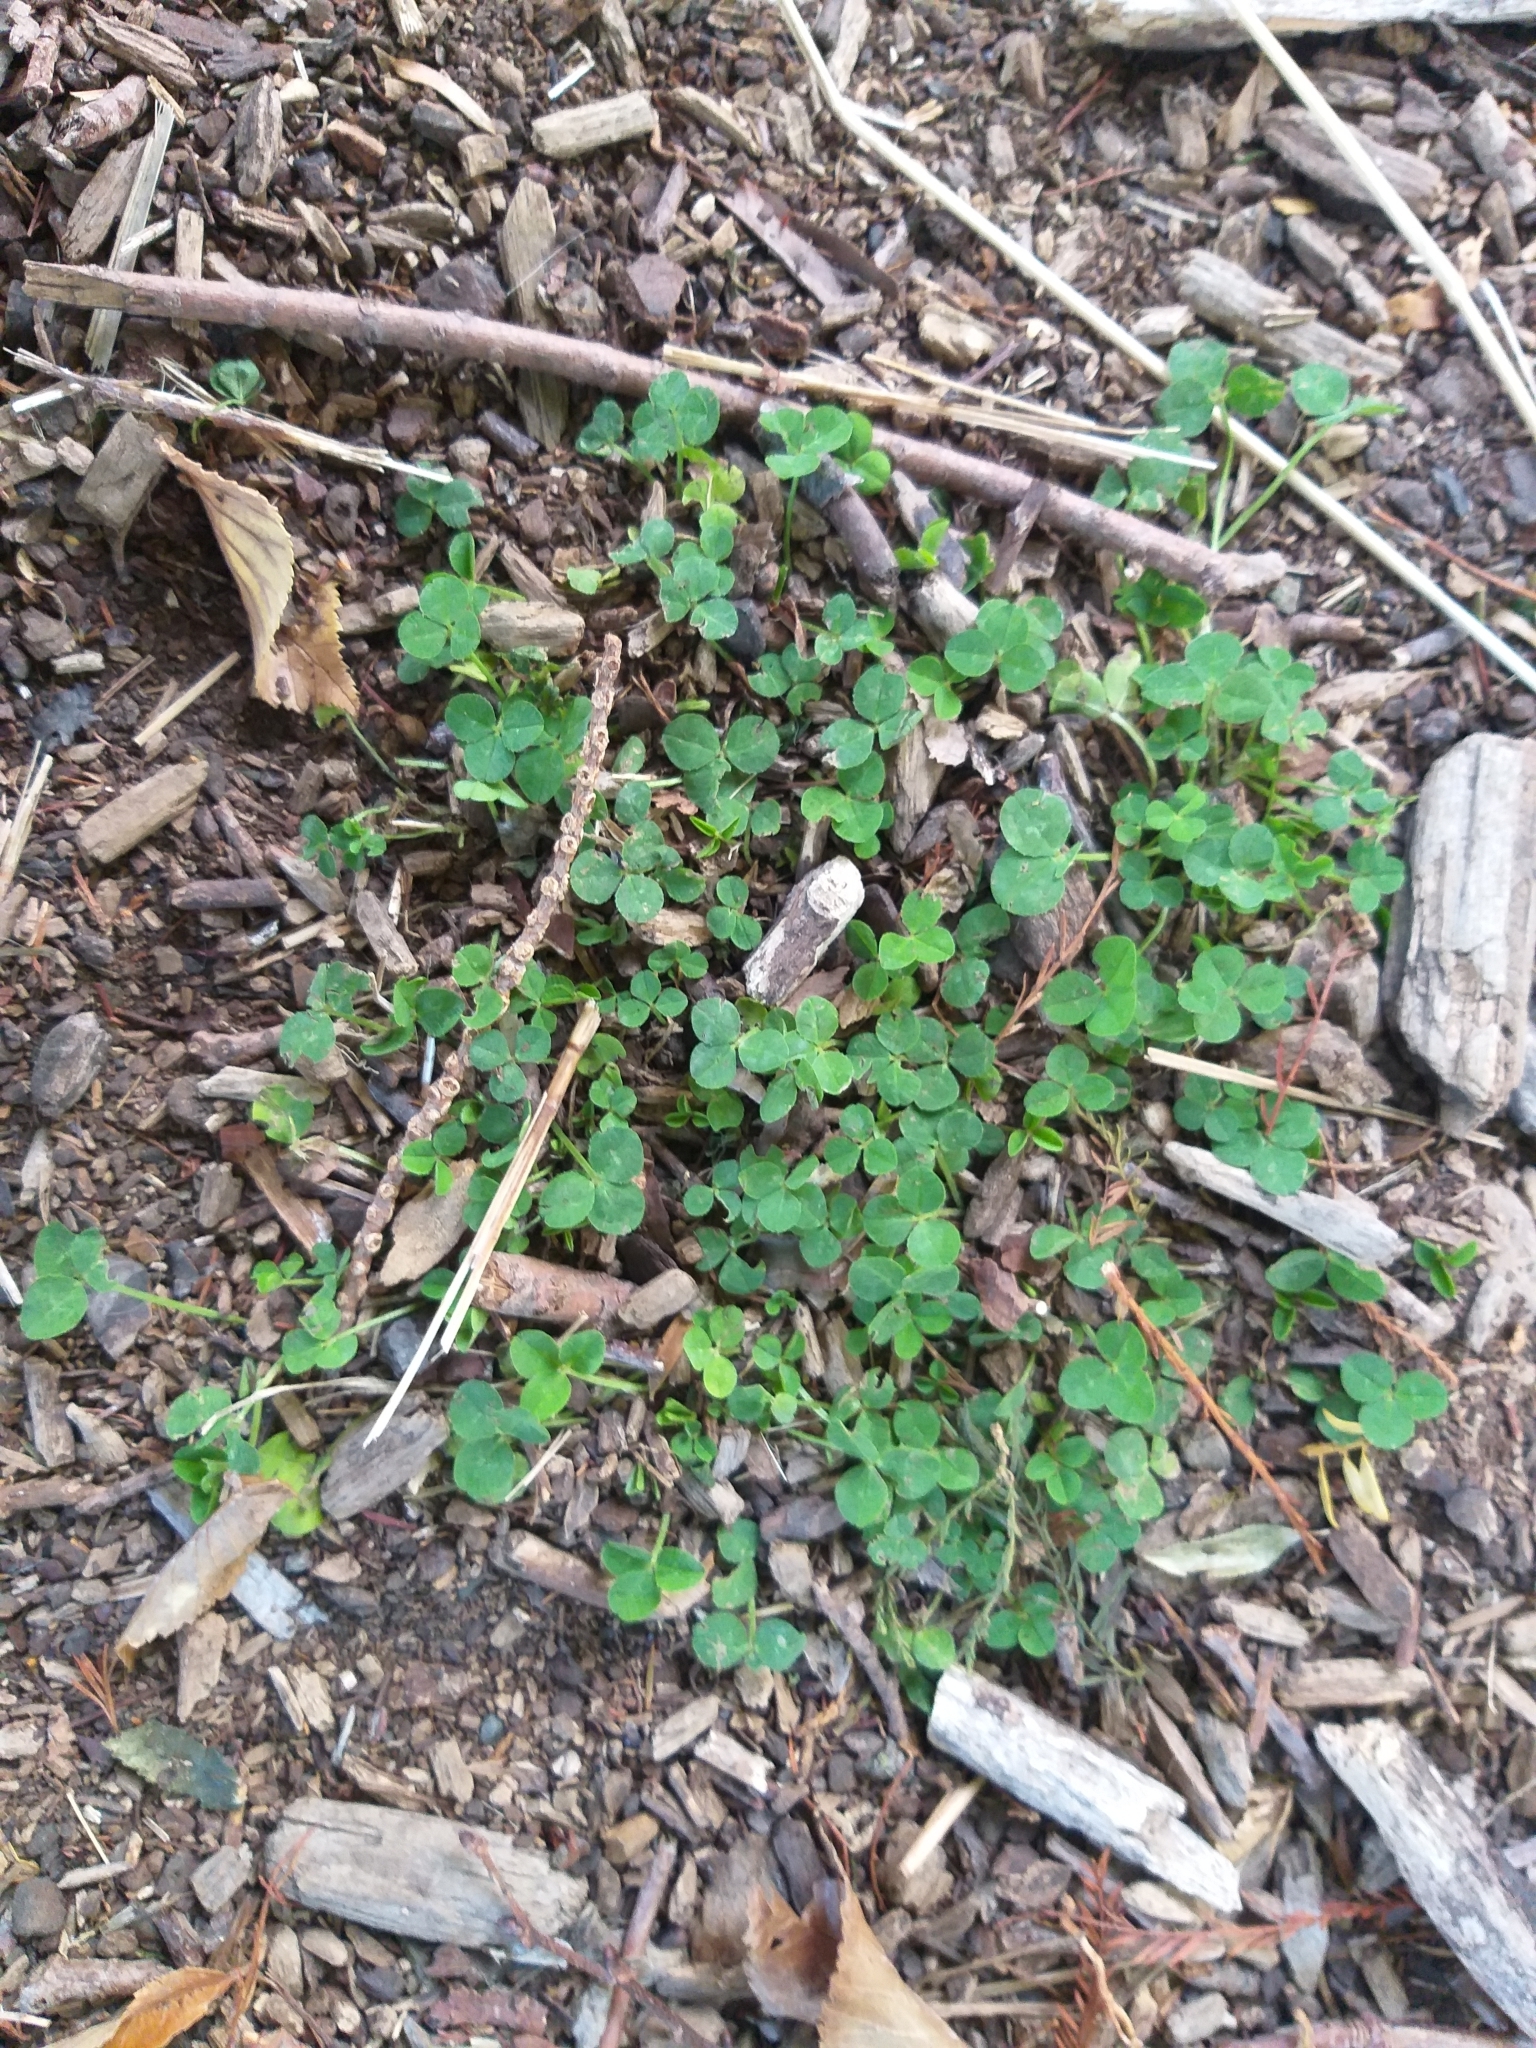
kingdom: Plantae
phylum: Tracheophyta
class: Magnoliopsida
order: Fabales
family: Fabaceae
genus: Trifolium
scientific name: Trifolium repens
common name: White clover
